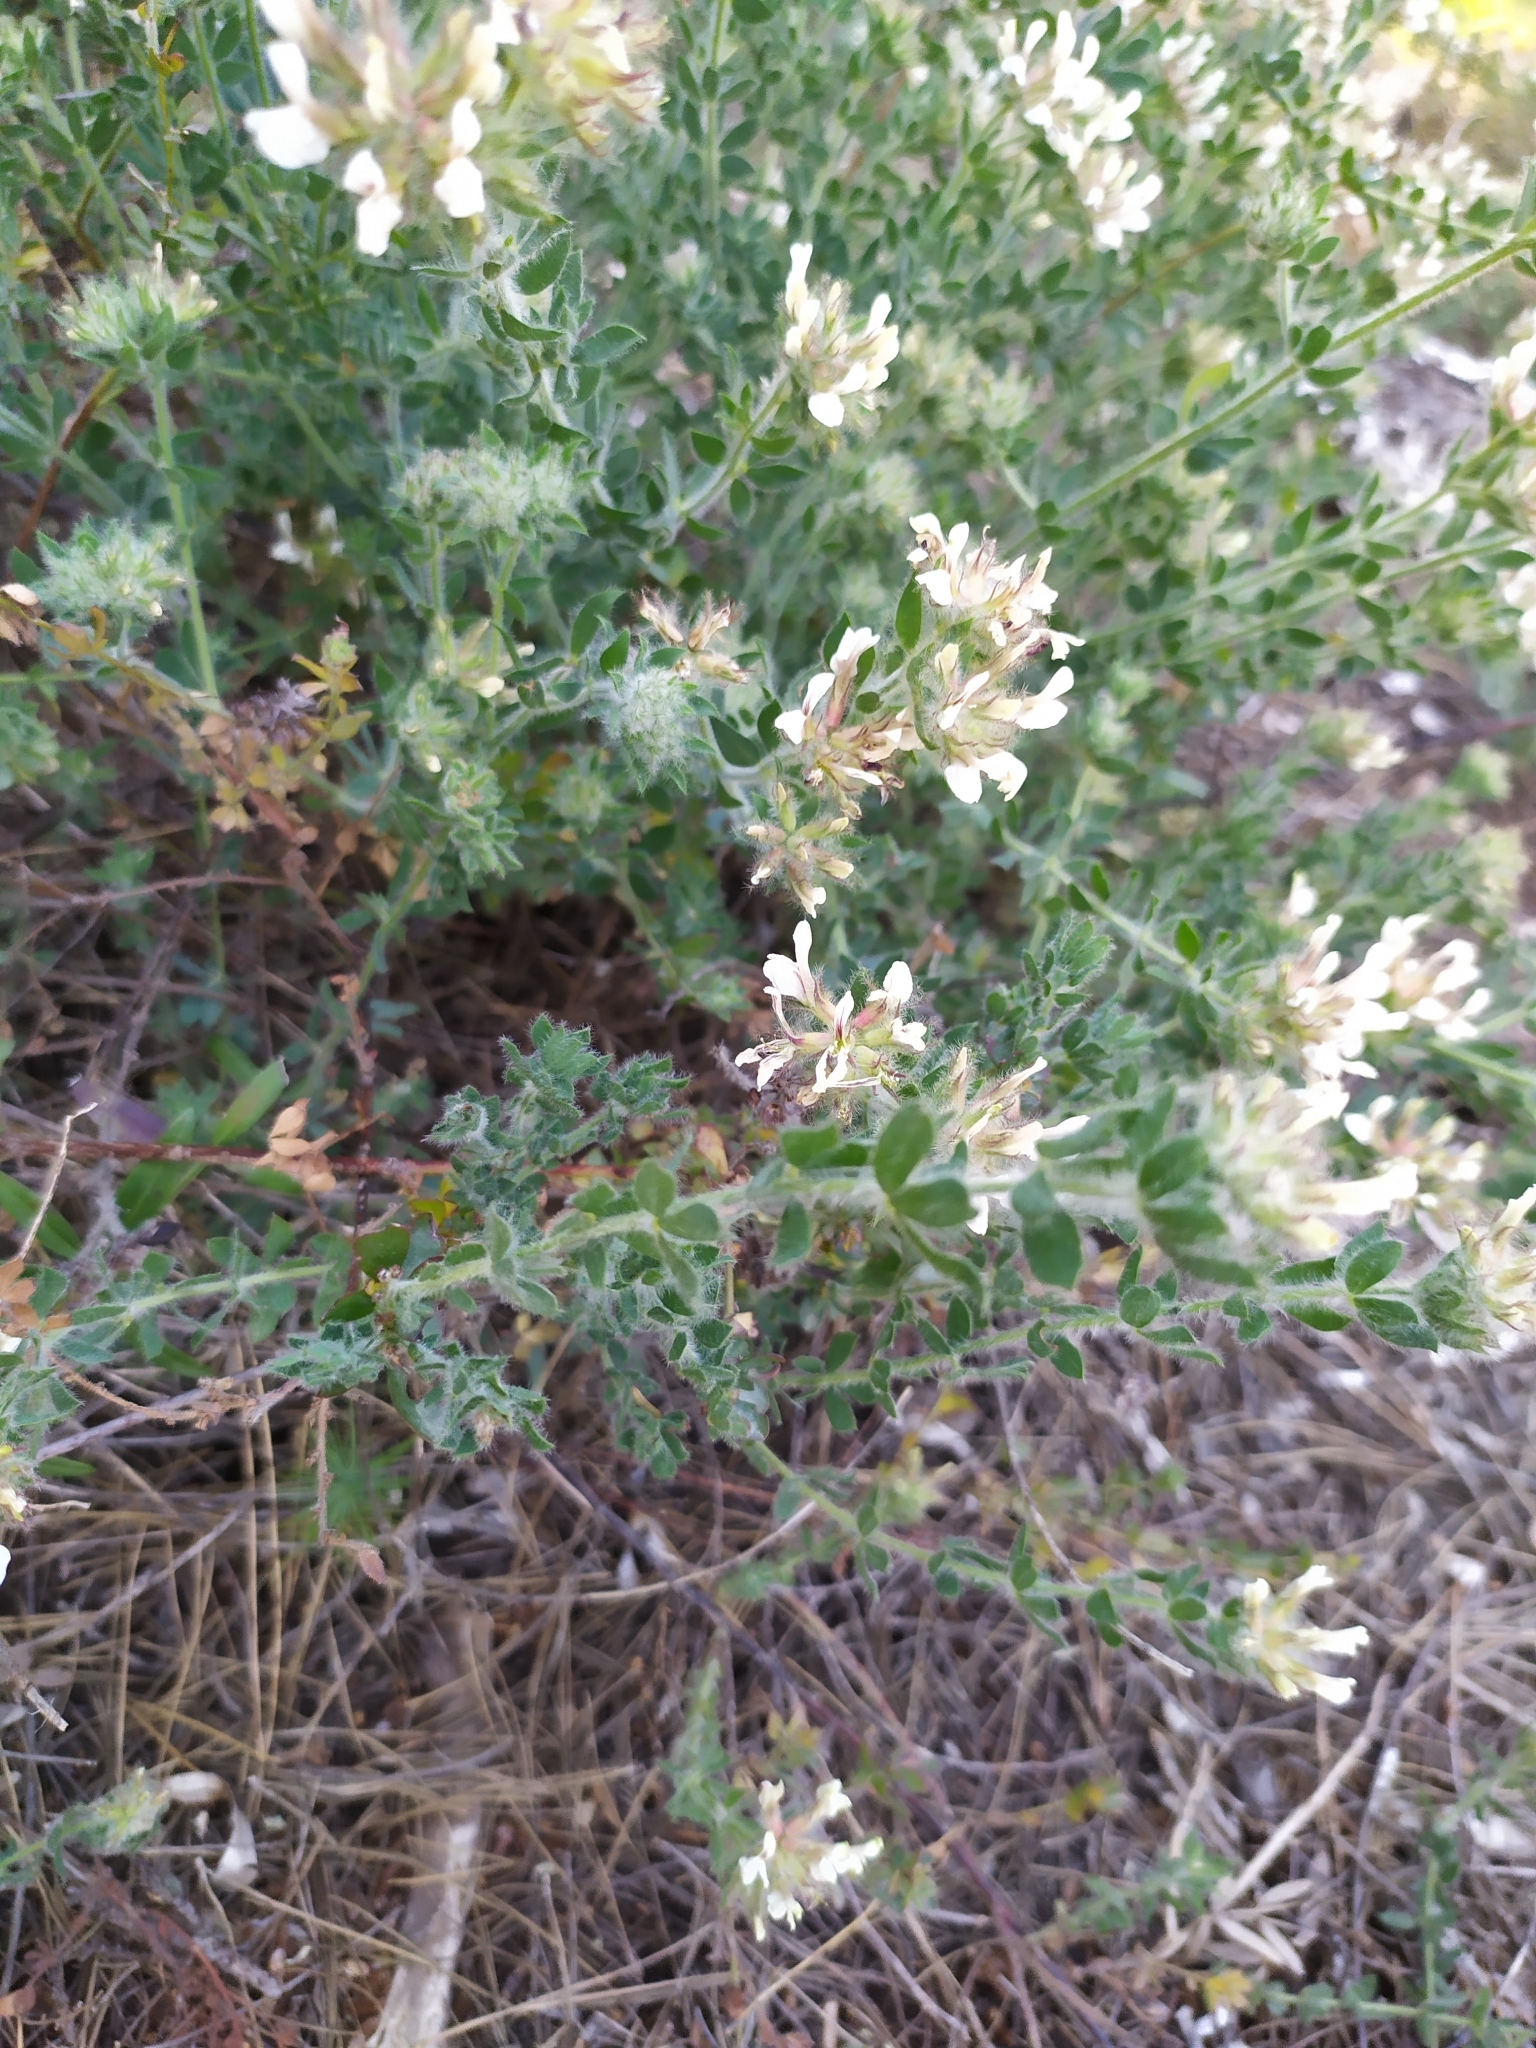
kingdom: Plantae
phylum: Tracheophyta
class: Magnoliopsida
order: Fabales
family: Fabaceae
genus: Lotus
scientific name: Lotus hirsutus
